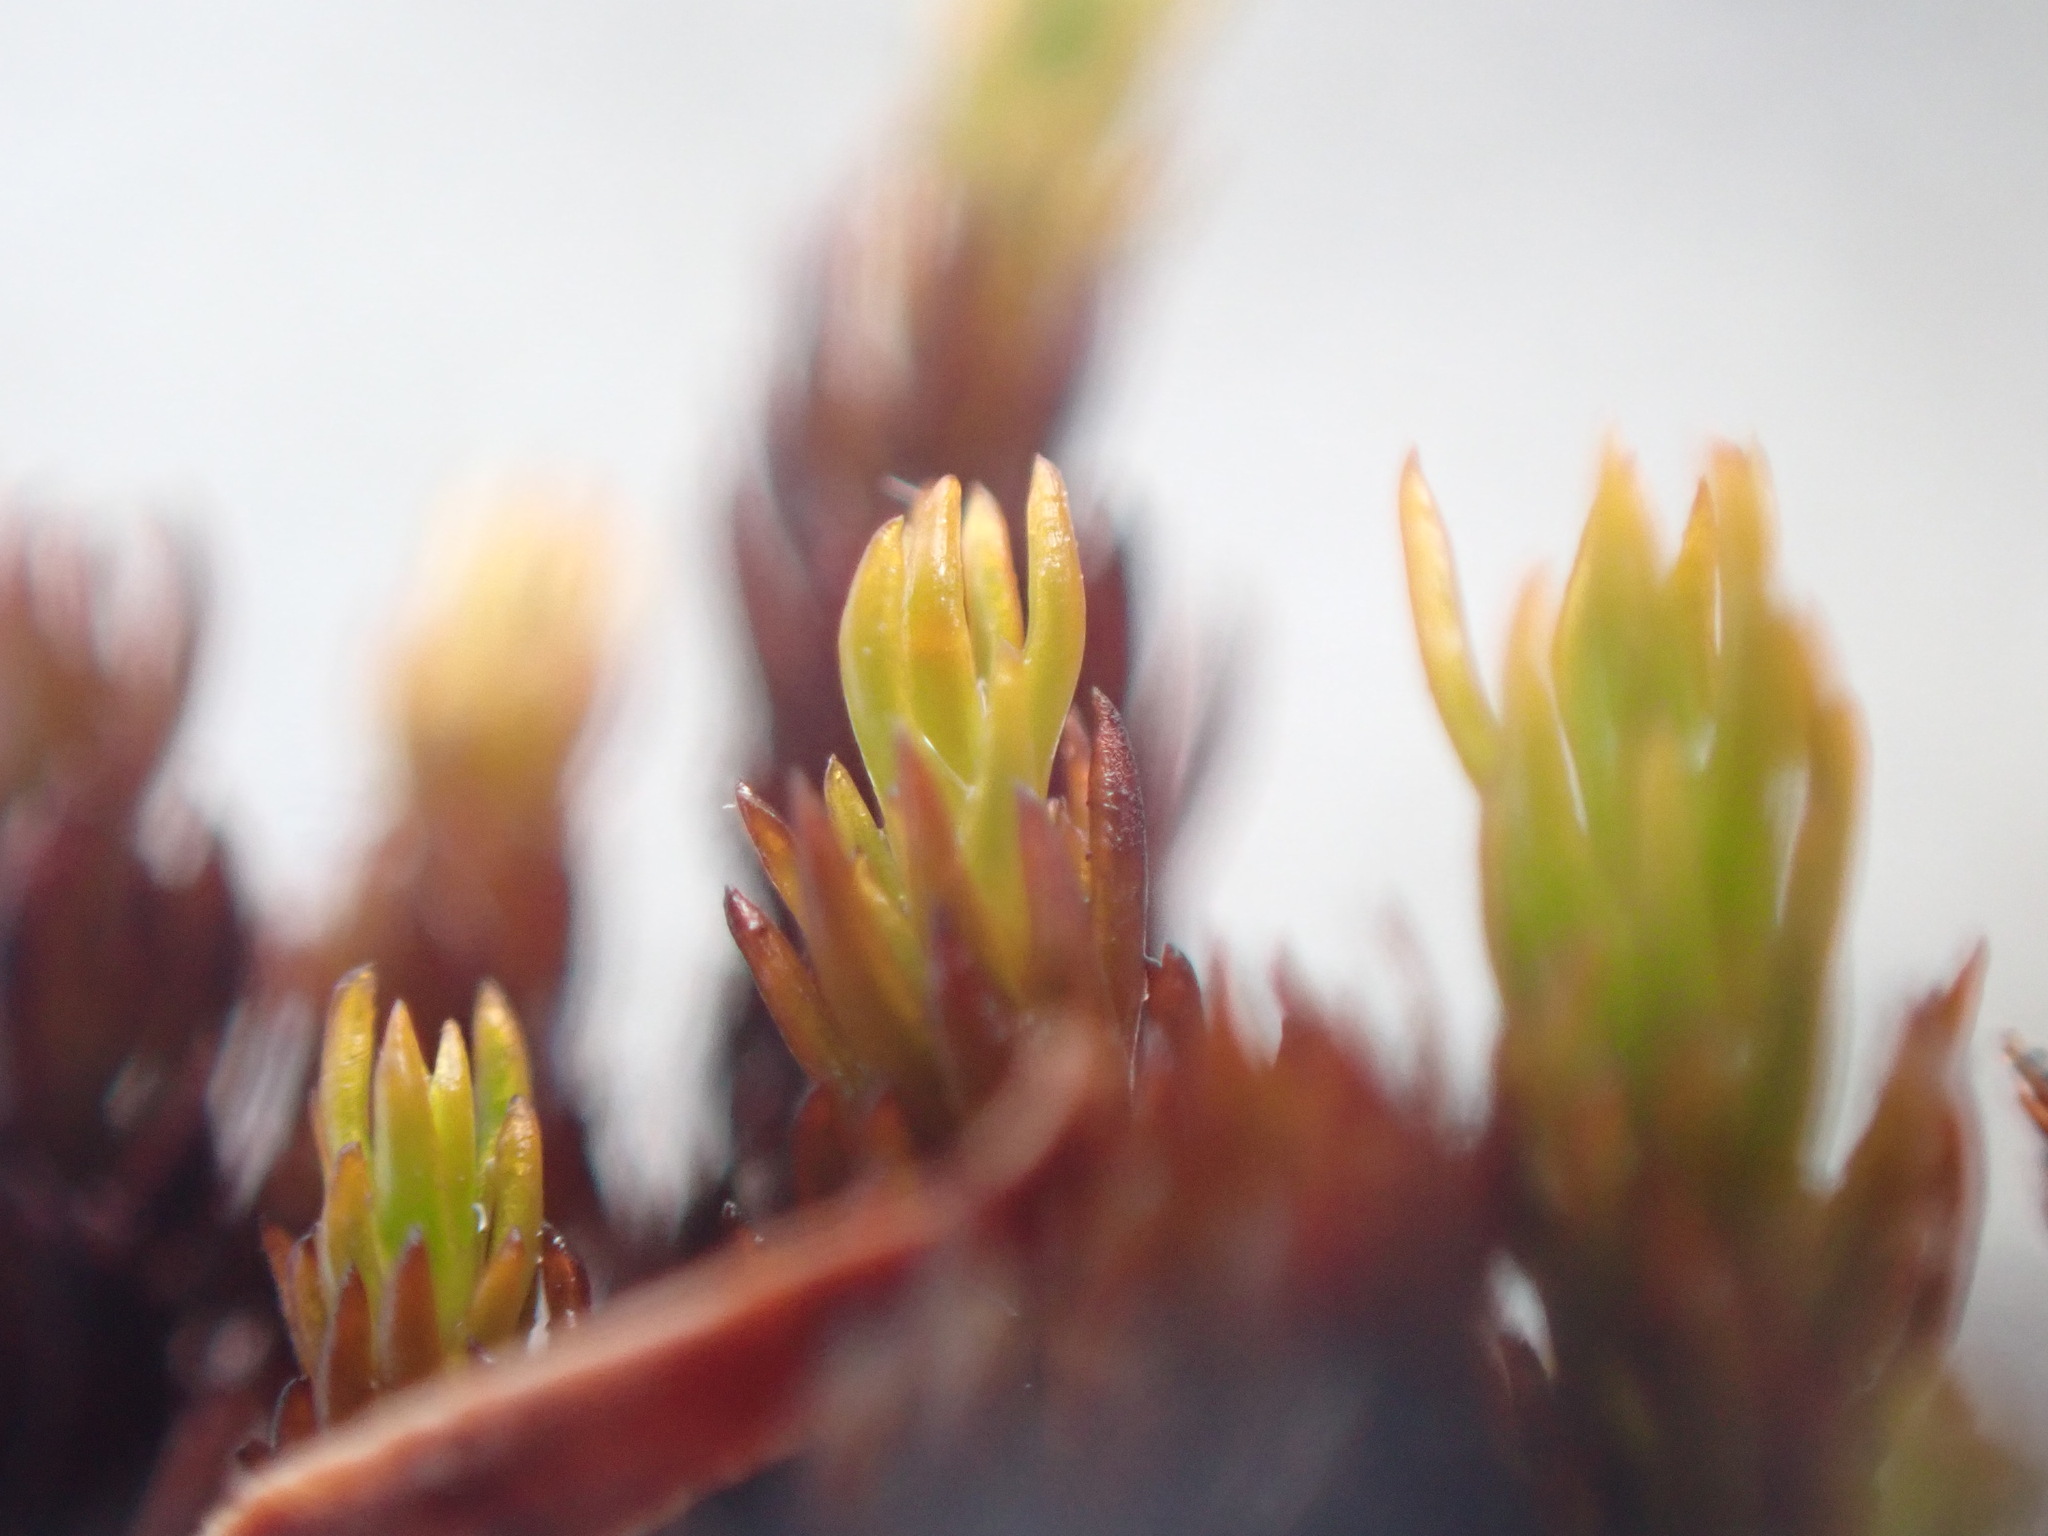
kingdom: Plantae
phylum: Bryophyta
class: Polytrichopsida
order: Polytrichales
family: Polytrichaceae
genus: Polytrichastrum
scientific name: Polytrichastrum sexangulare
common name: Northern haircap
